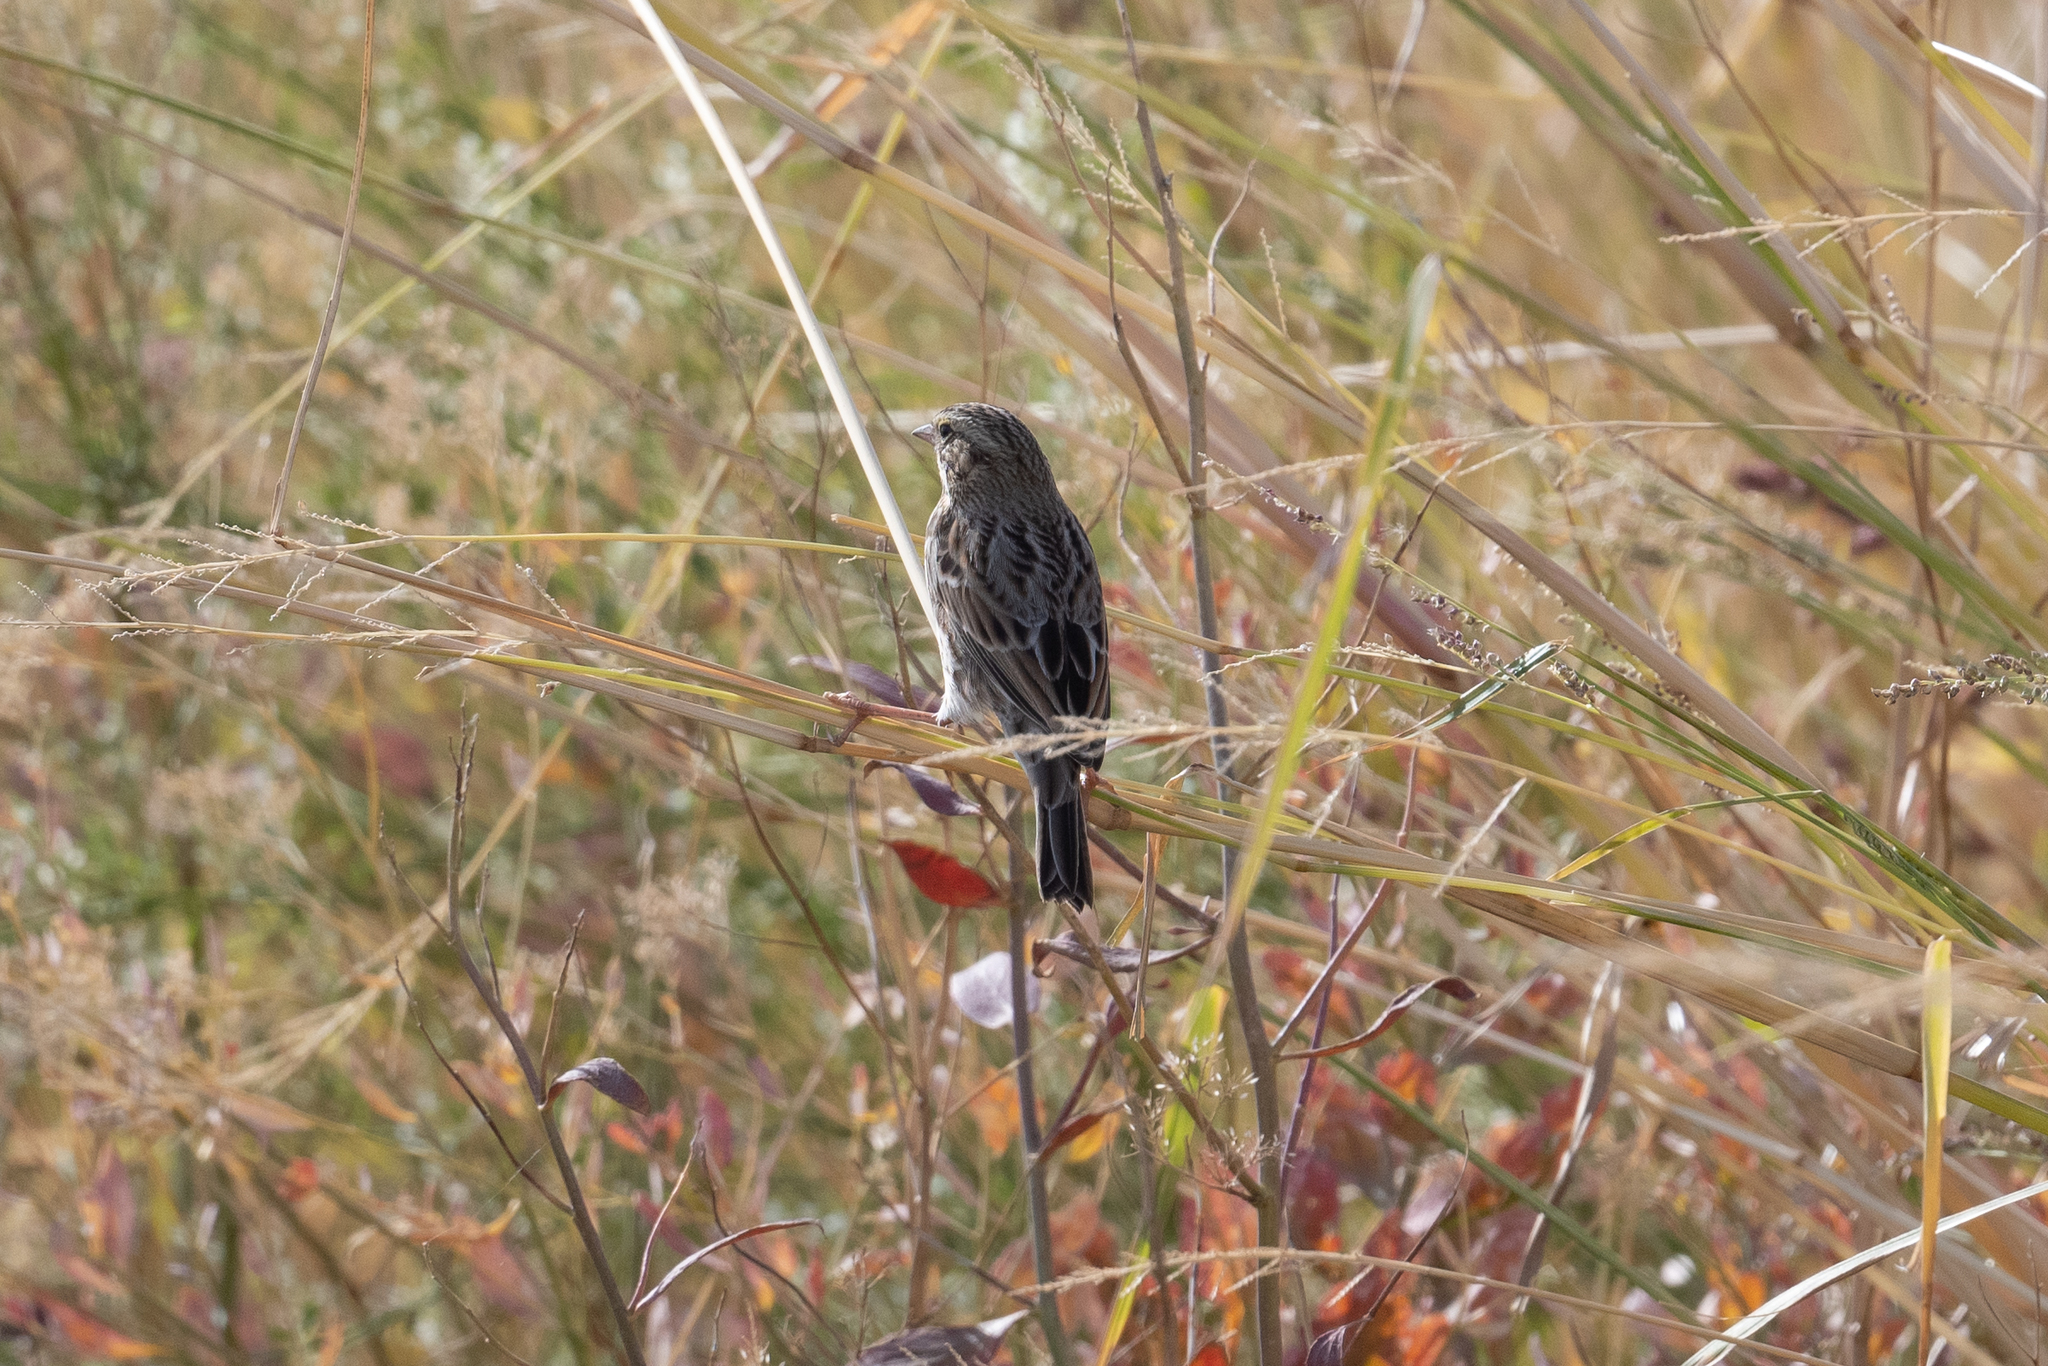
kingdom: Animalia
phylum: Chordata
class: Aves
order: Passeriformes
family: Passerellidae
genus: Passerculus
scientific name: Passerculus sandwichensis
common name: Savannah sparrow
